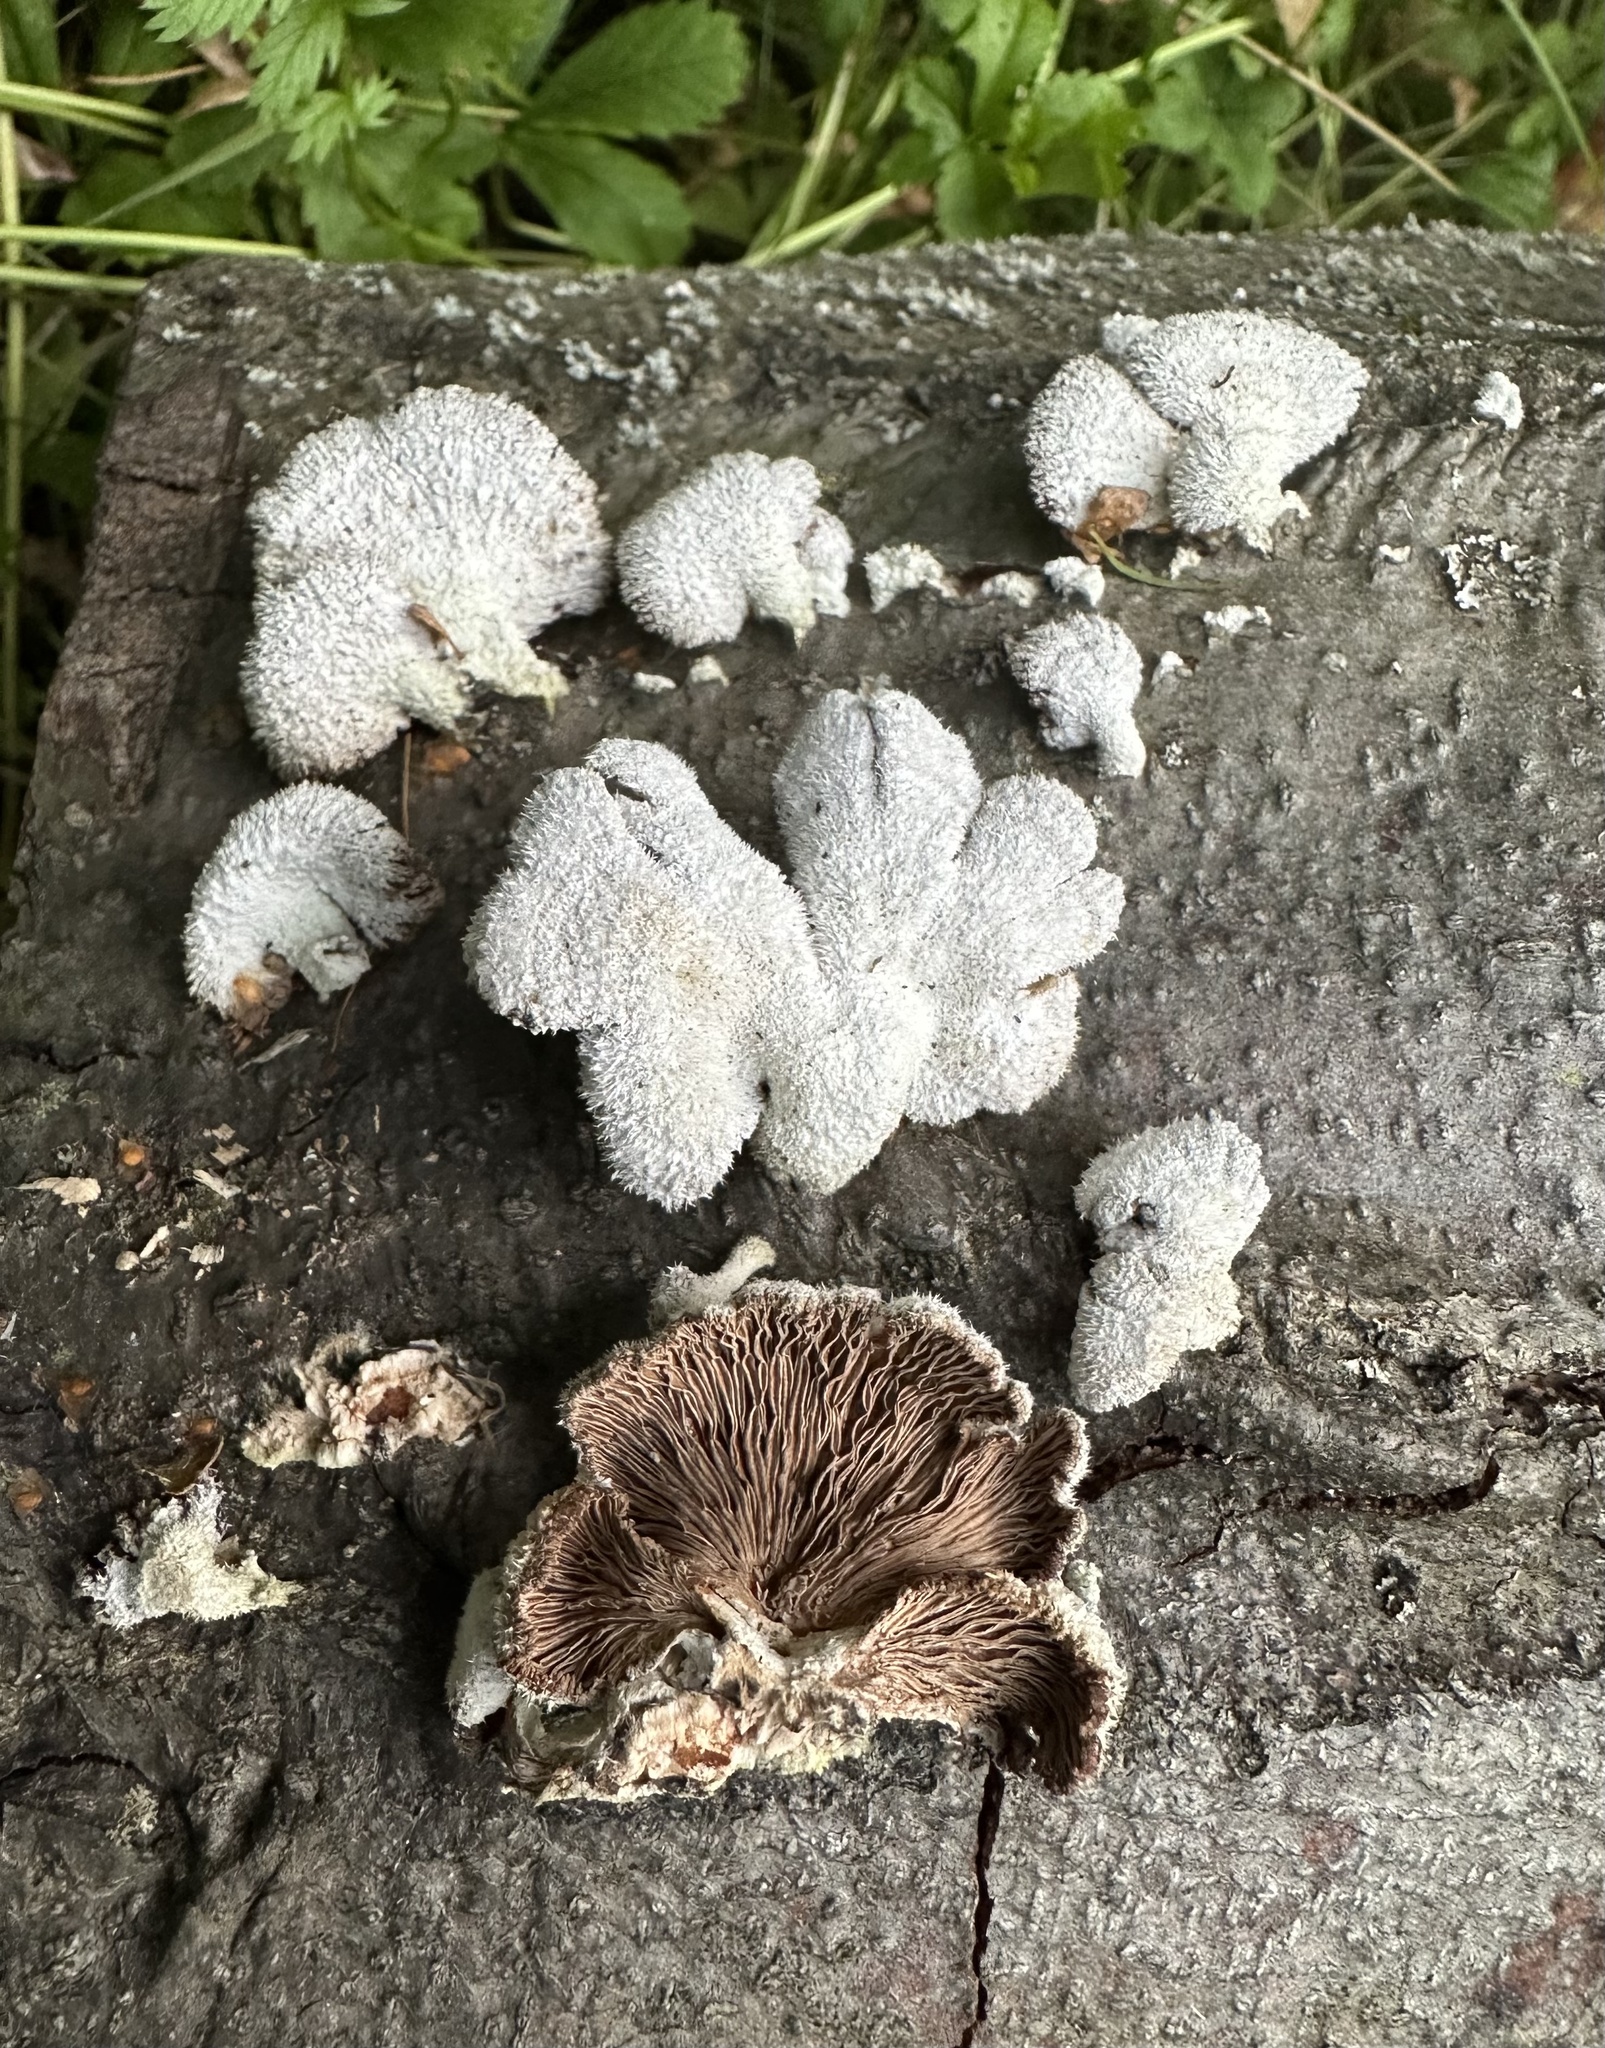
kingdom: Fungi
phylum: Basidiomycota
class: Agaricomycetes
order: Agaricales
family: Schizophyllaceae
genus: Schizophyllum
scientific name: Schizophyllum commune
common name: Common porecrust
